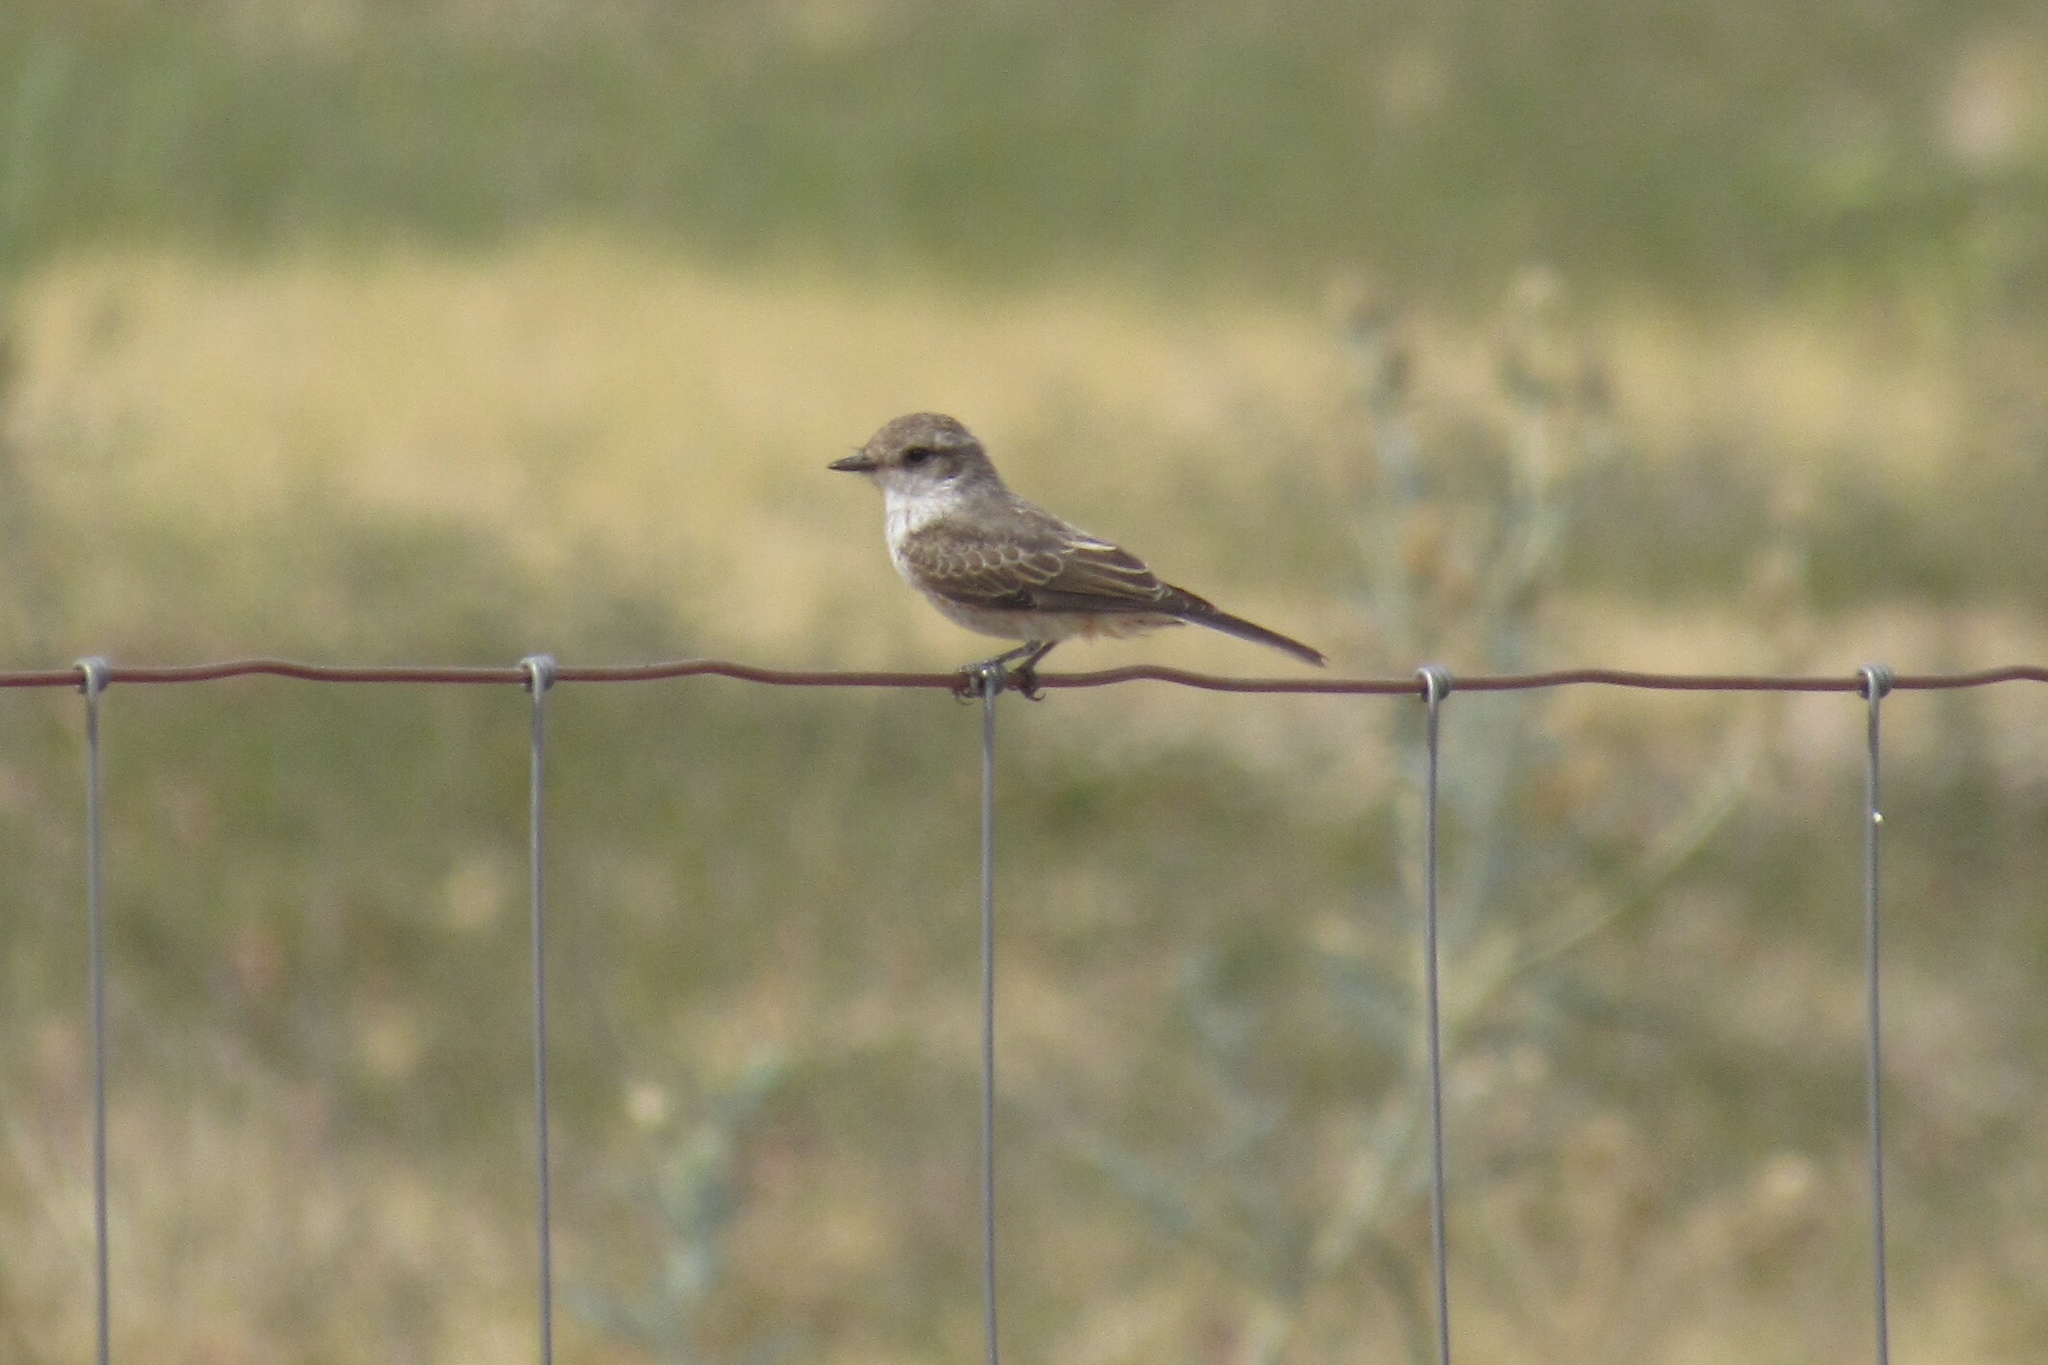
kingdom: Animalia
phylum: Chordata
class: Aves
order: Passeriformes
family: Tyrannidae
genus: Pyrocephalus
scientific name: Pyrocephalus rubinus
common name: Vermilion flycatcher
